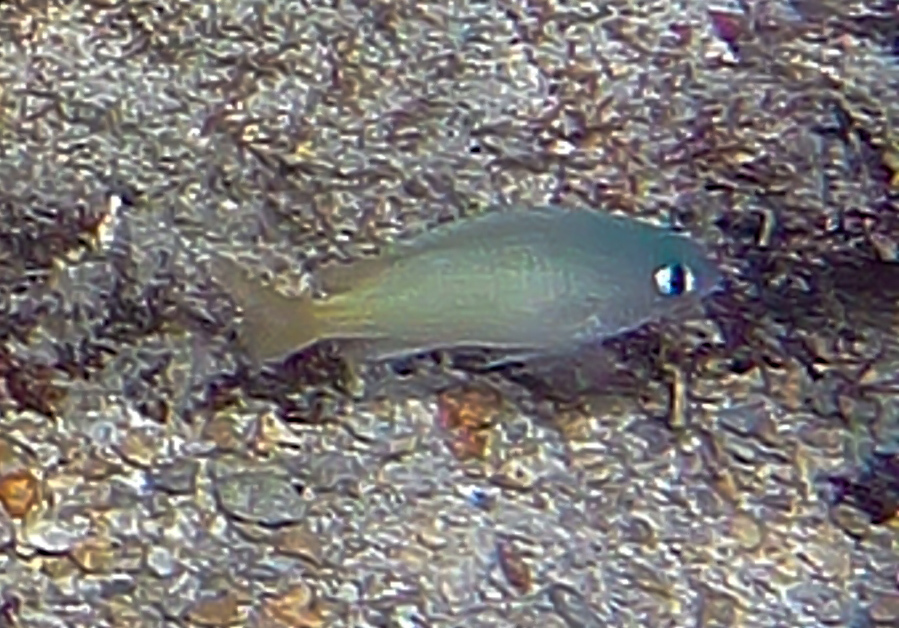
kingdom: Animalia
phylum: Chordata
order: Perciformes
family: Pomacentridae
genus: Plectroglyphidodon
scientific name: Plectroglyphidodon imparipennis
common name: Brighteye damsel
